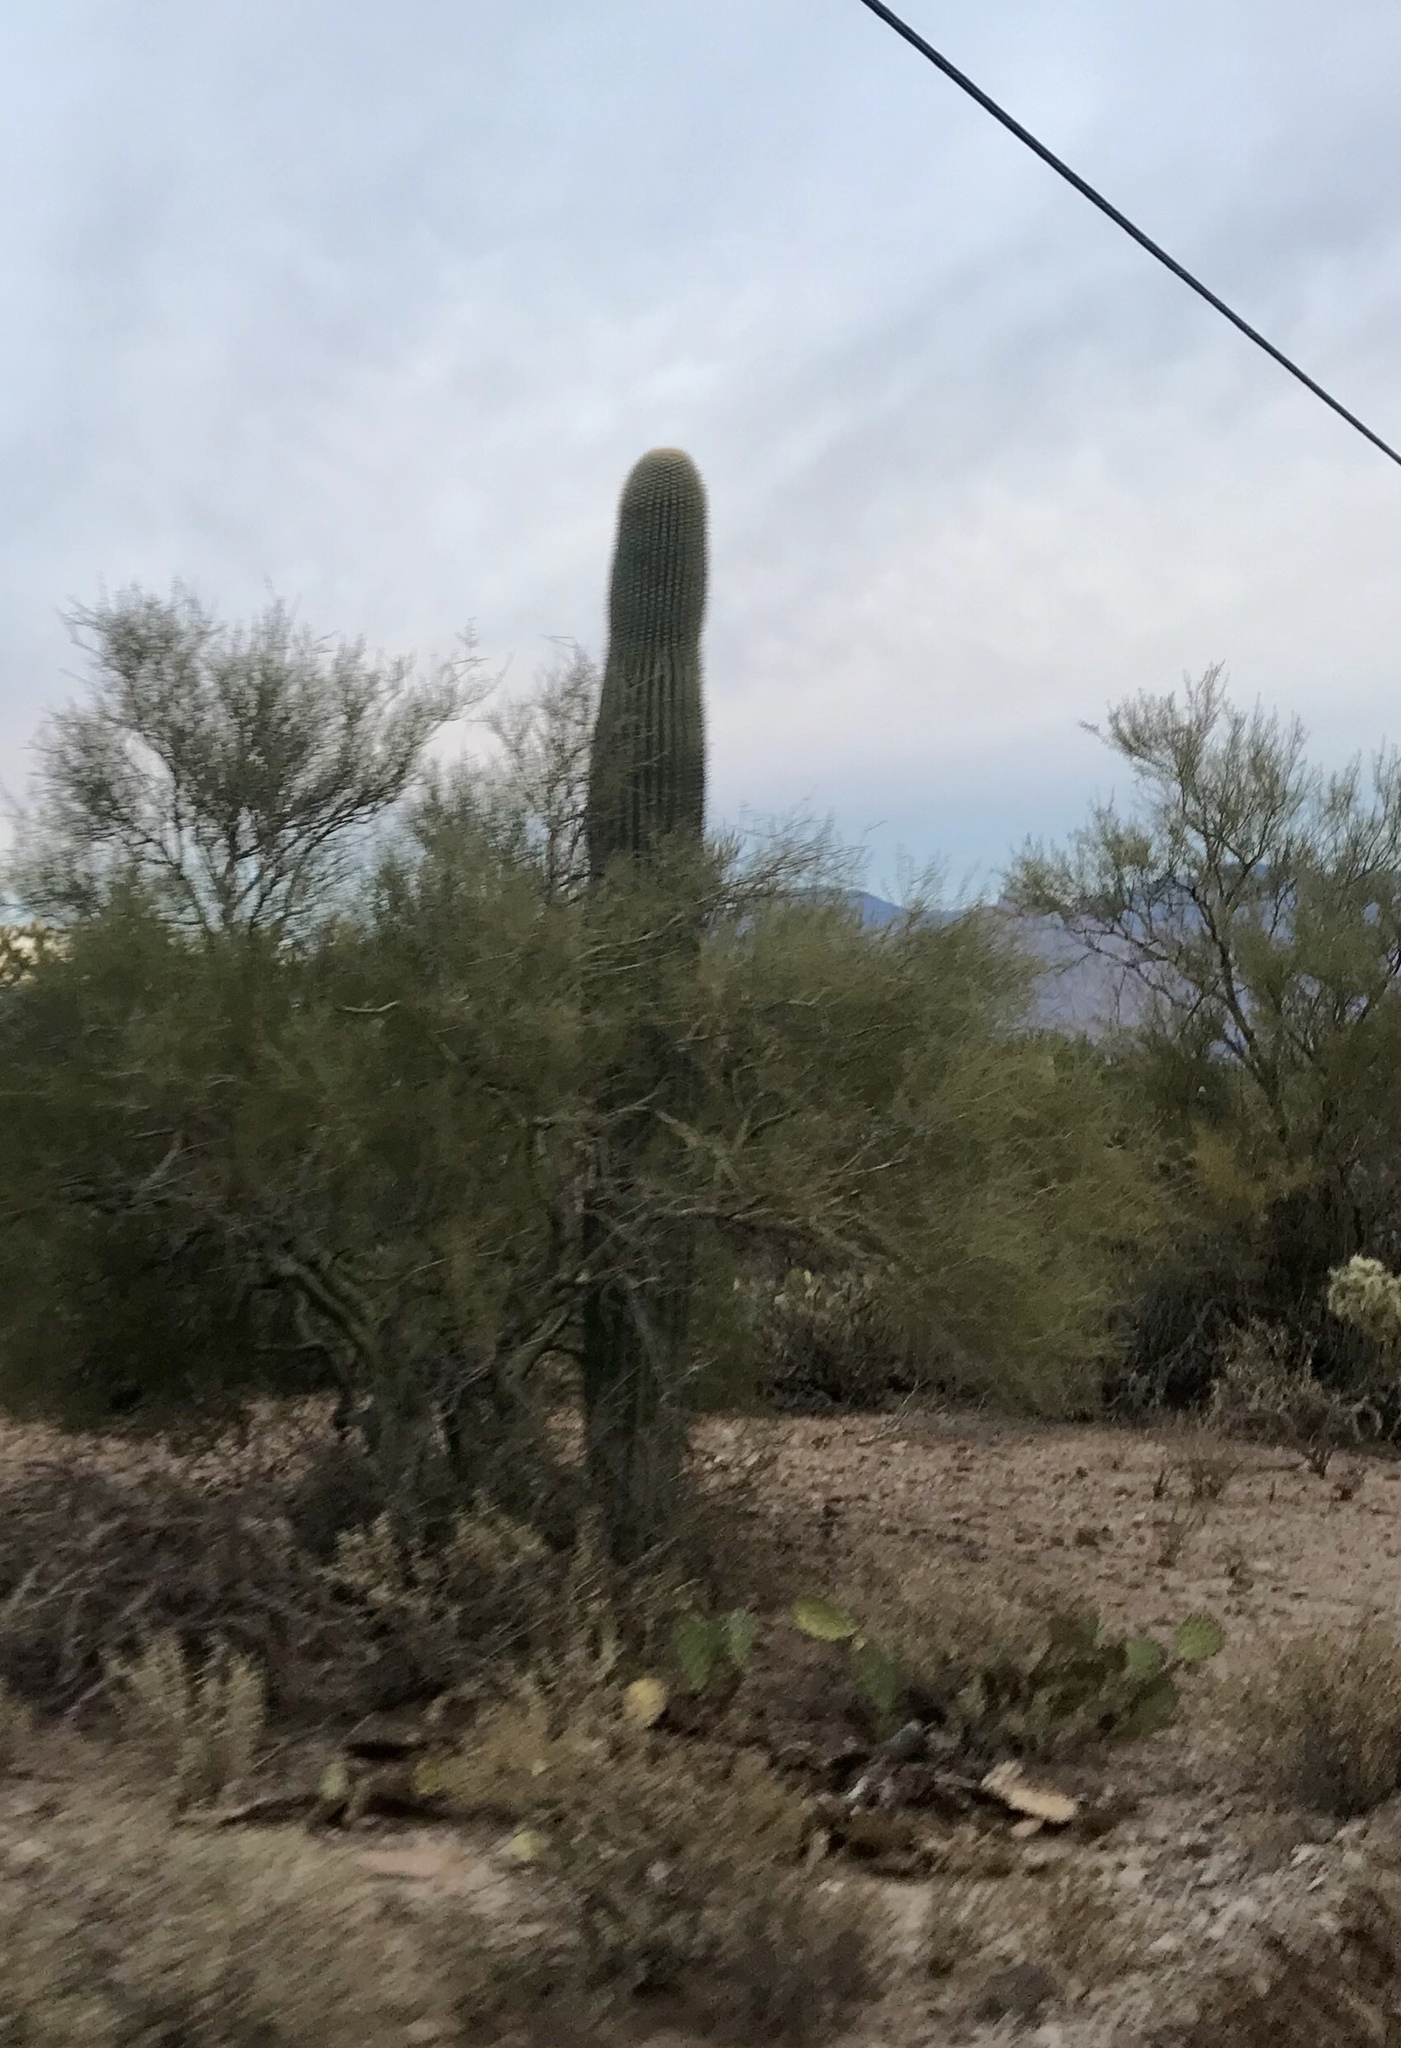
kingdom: Plantae
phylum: Tracheophyta
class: Magnoliopsida
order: Caryophyllales
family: Cactaceae
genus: Carnegiea
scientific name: Carnegiea gigantea
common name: Saguaro
